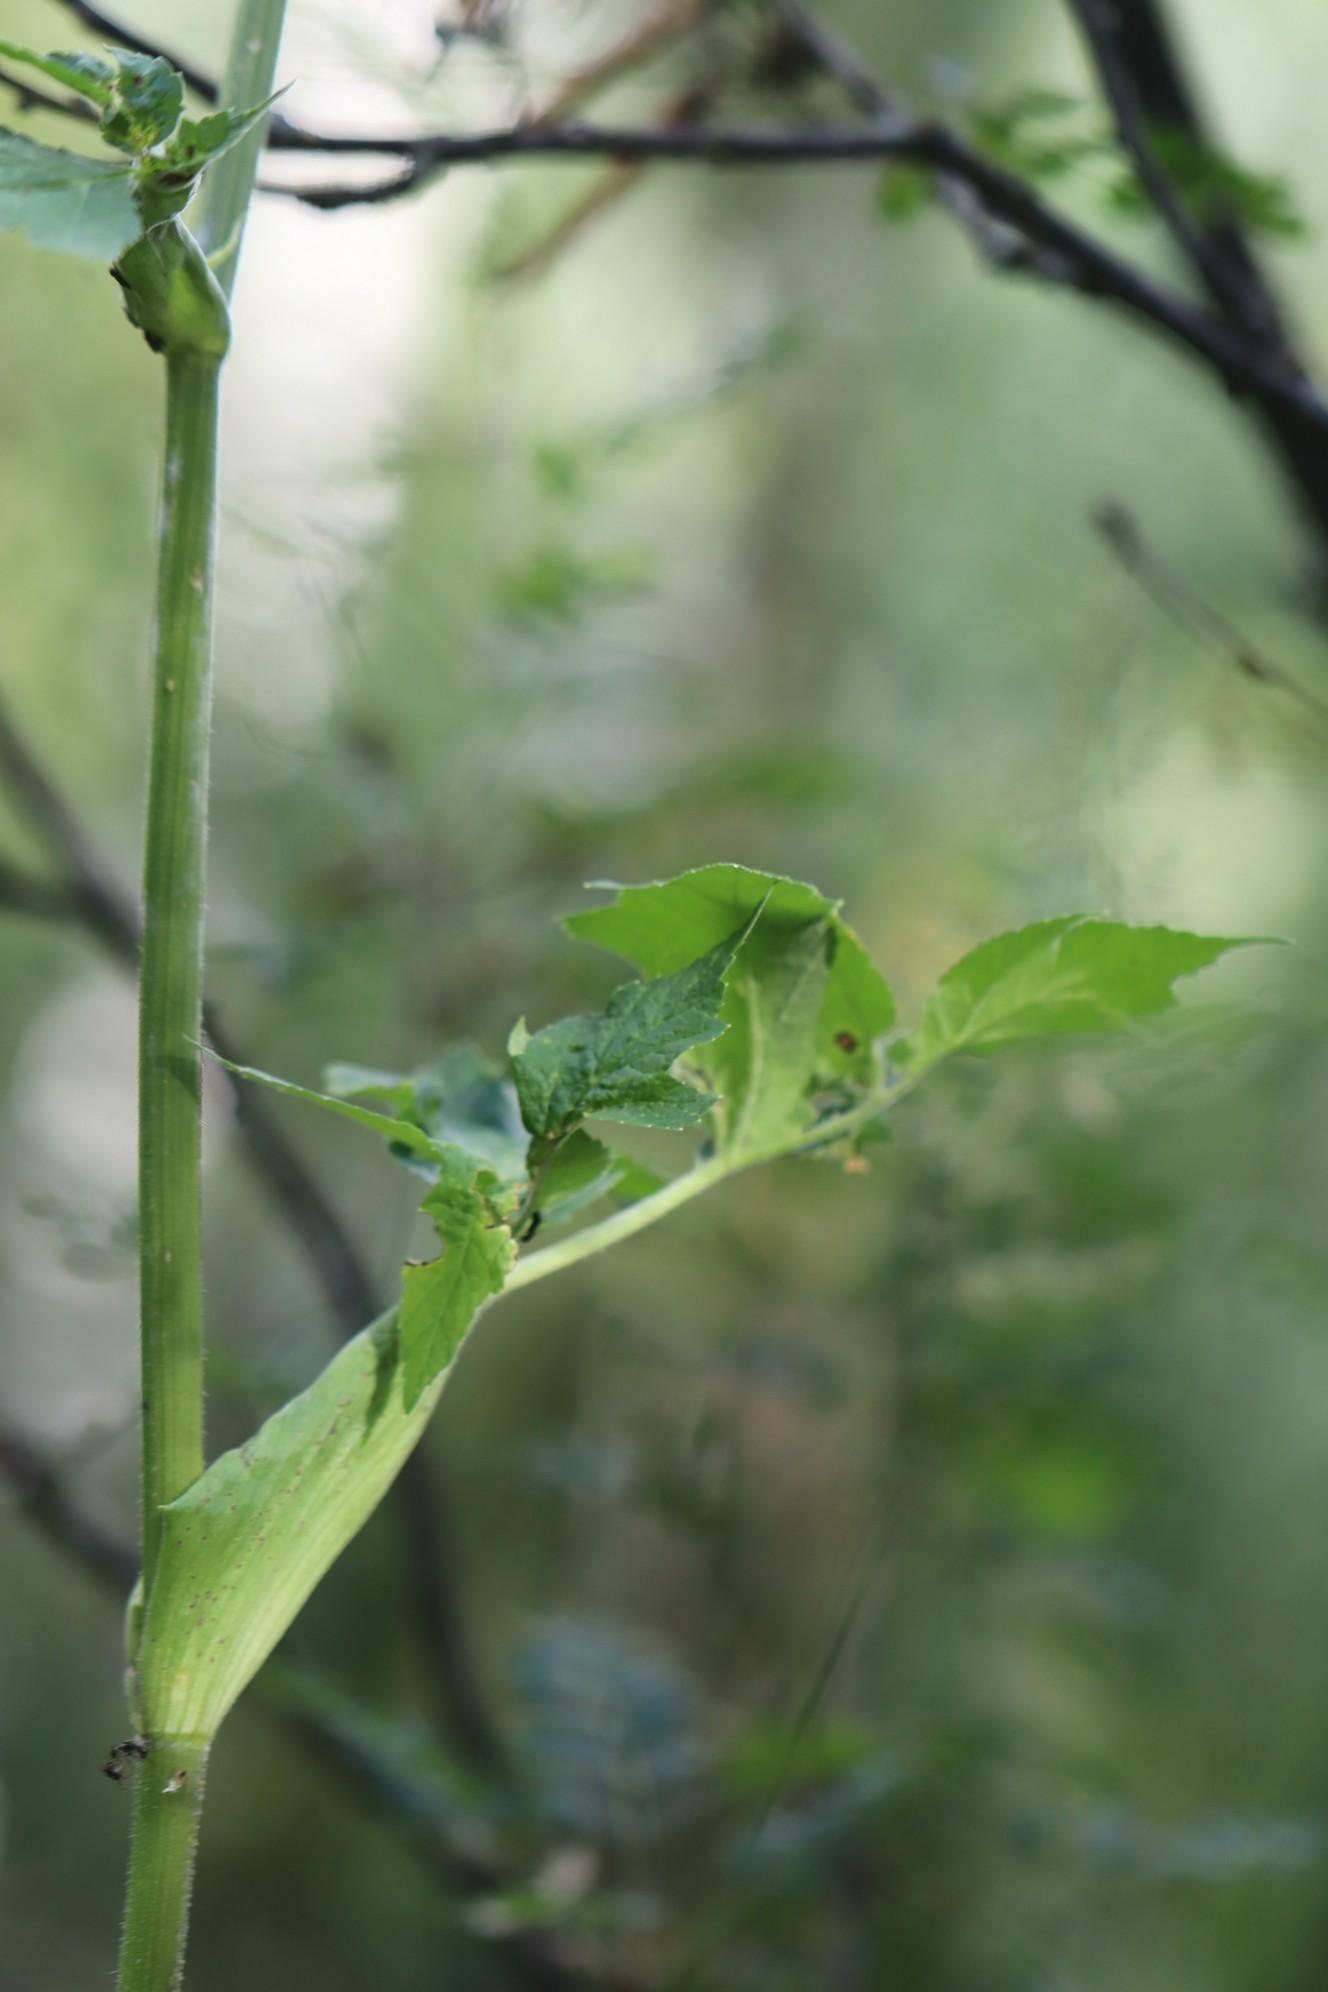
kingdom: Plantae
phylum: Tracheophyta
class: Magnoliopsida
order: Apiales
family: Apiaceae
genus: Heracleum
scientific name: Heracleum dissectum
